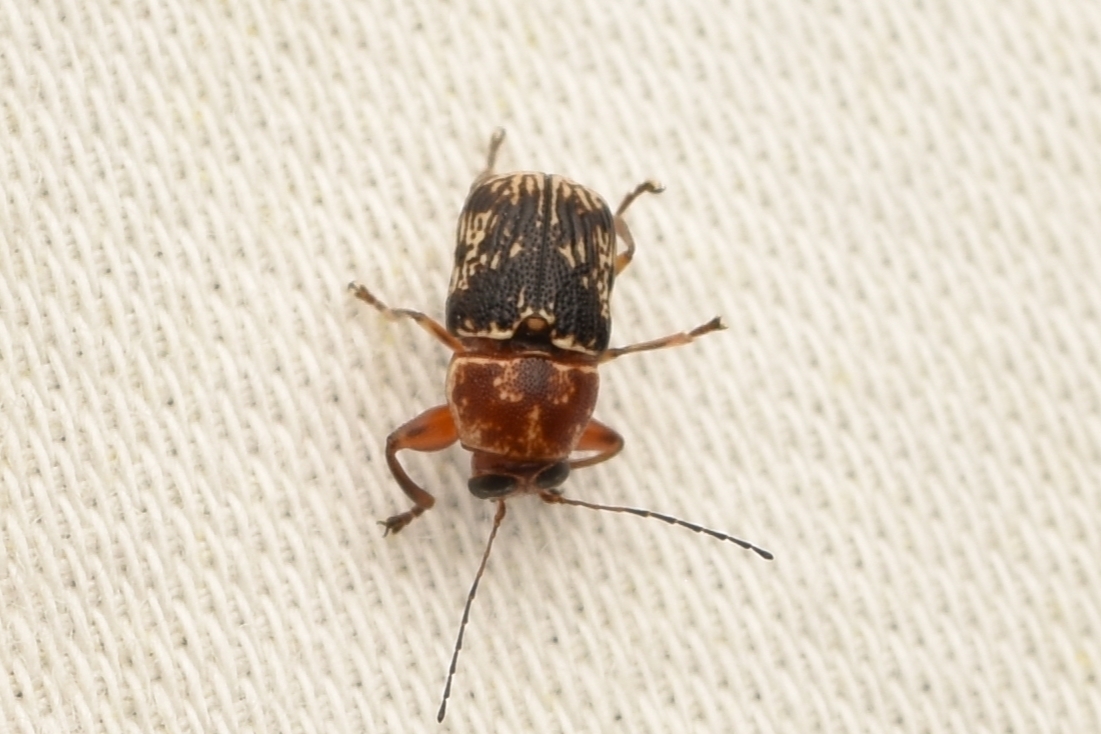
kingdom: Animalia
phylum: Arthropoda
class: Insecta
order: Coleoptera
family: Chrysomelidae
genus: Pachybrachis
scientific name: Pachybrachis
